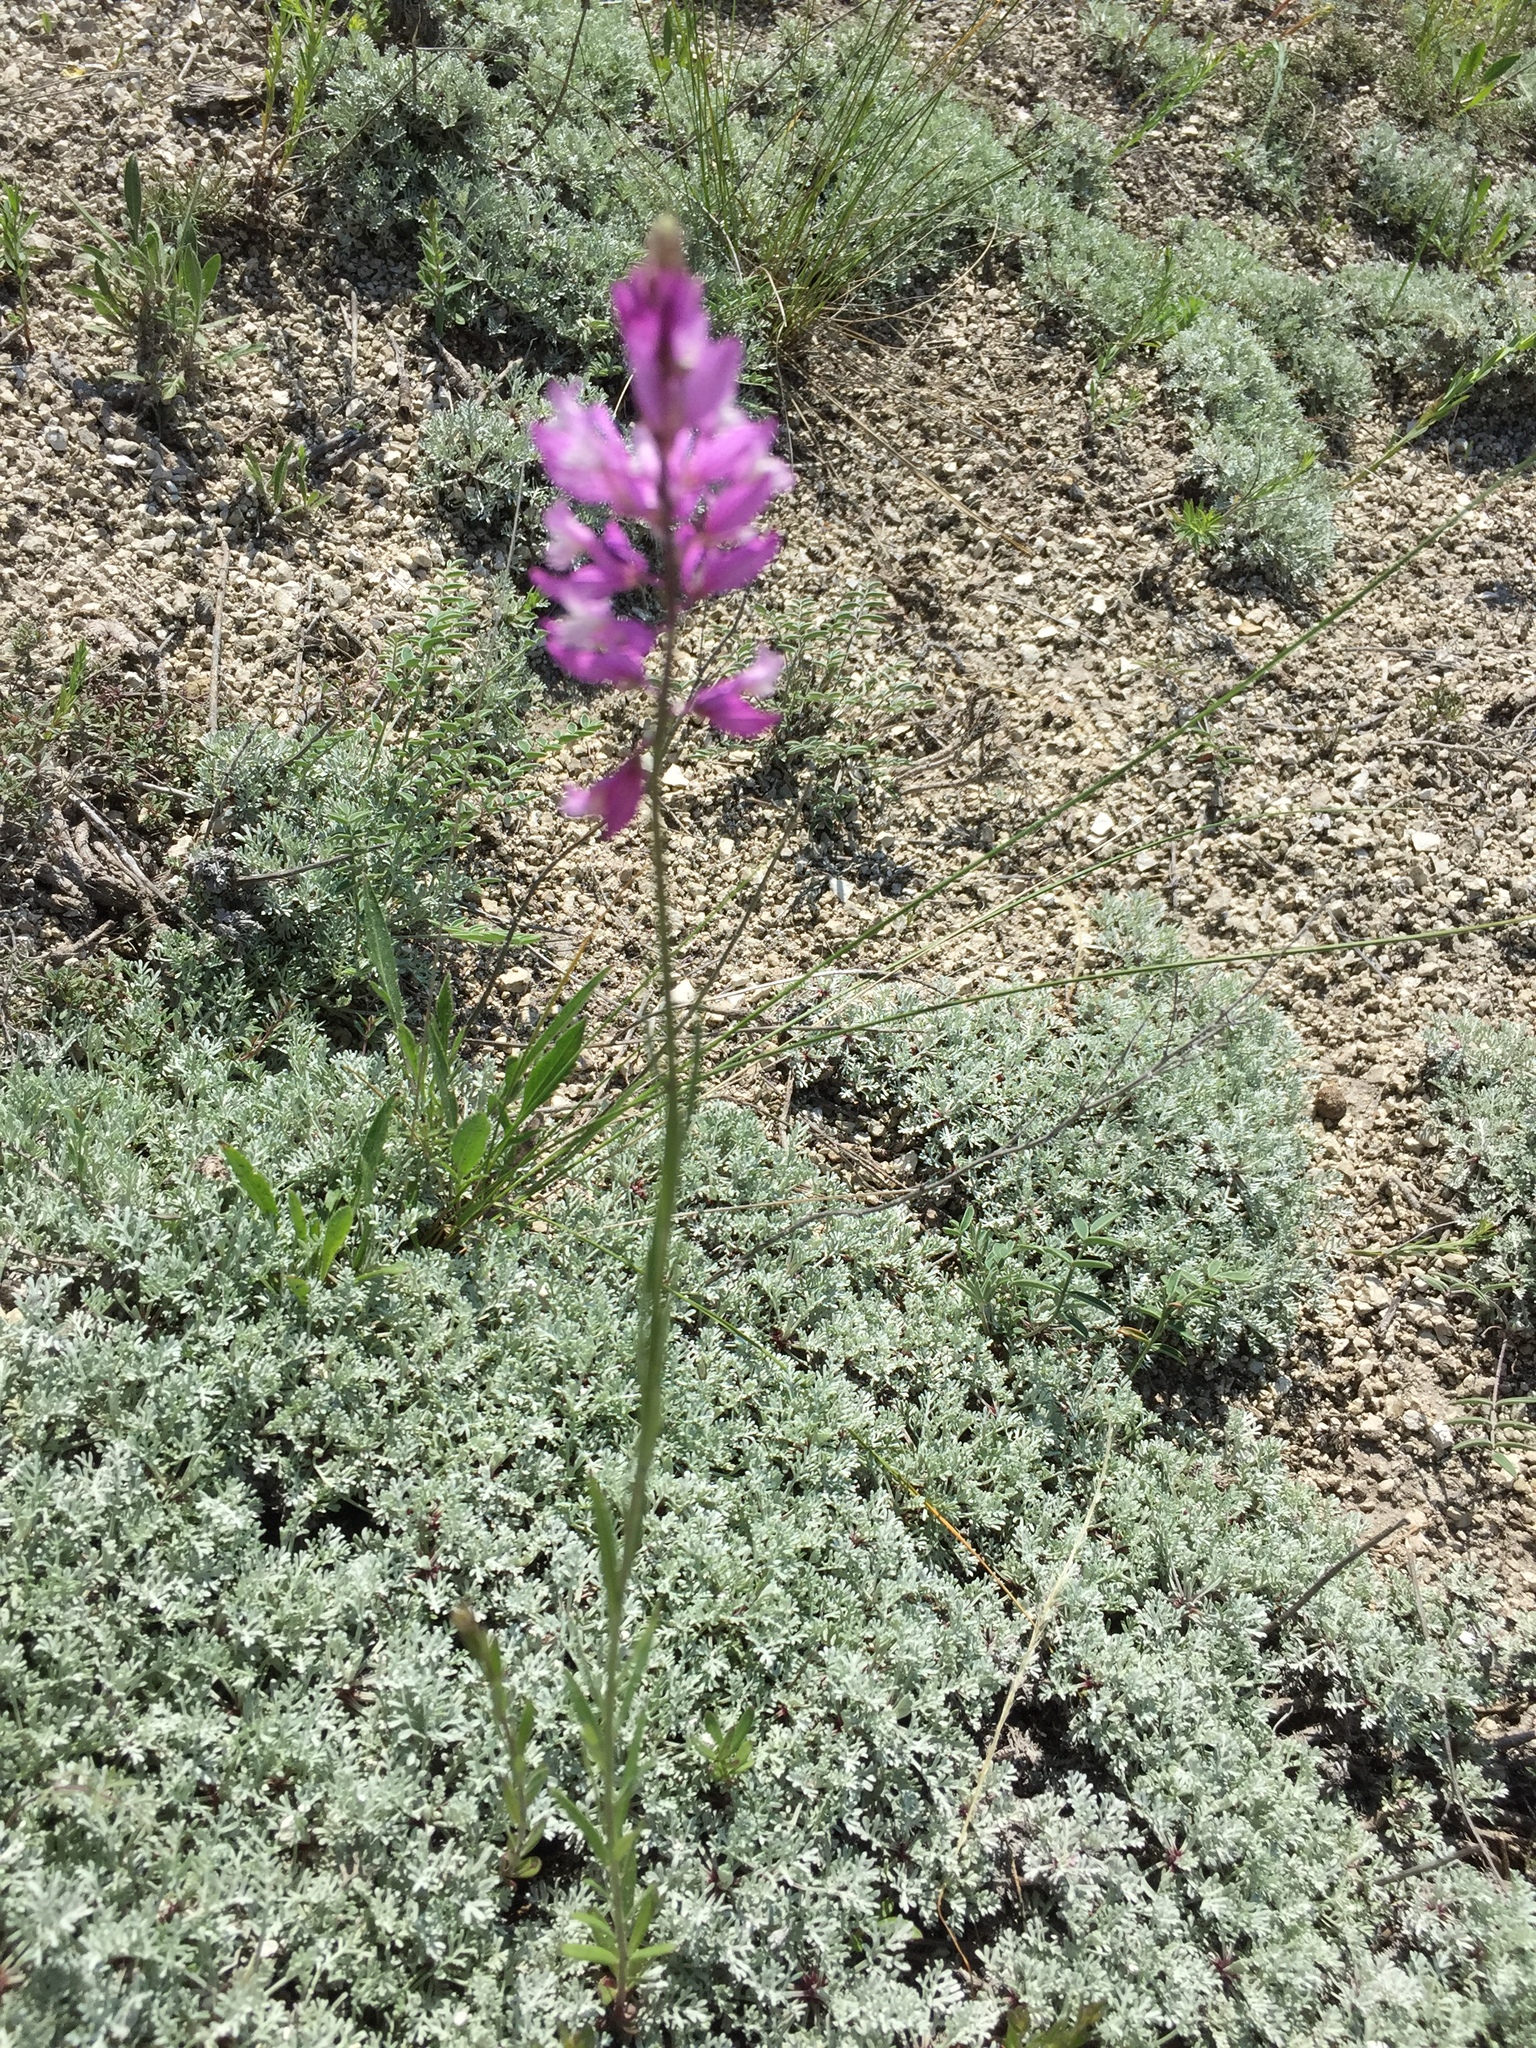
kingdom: Plantae
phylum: Tracheophyta
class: Magnoliopsida
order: Fabales
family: Polygalaceae
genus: Polygala
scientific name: Polygala nicaeensis
